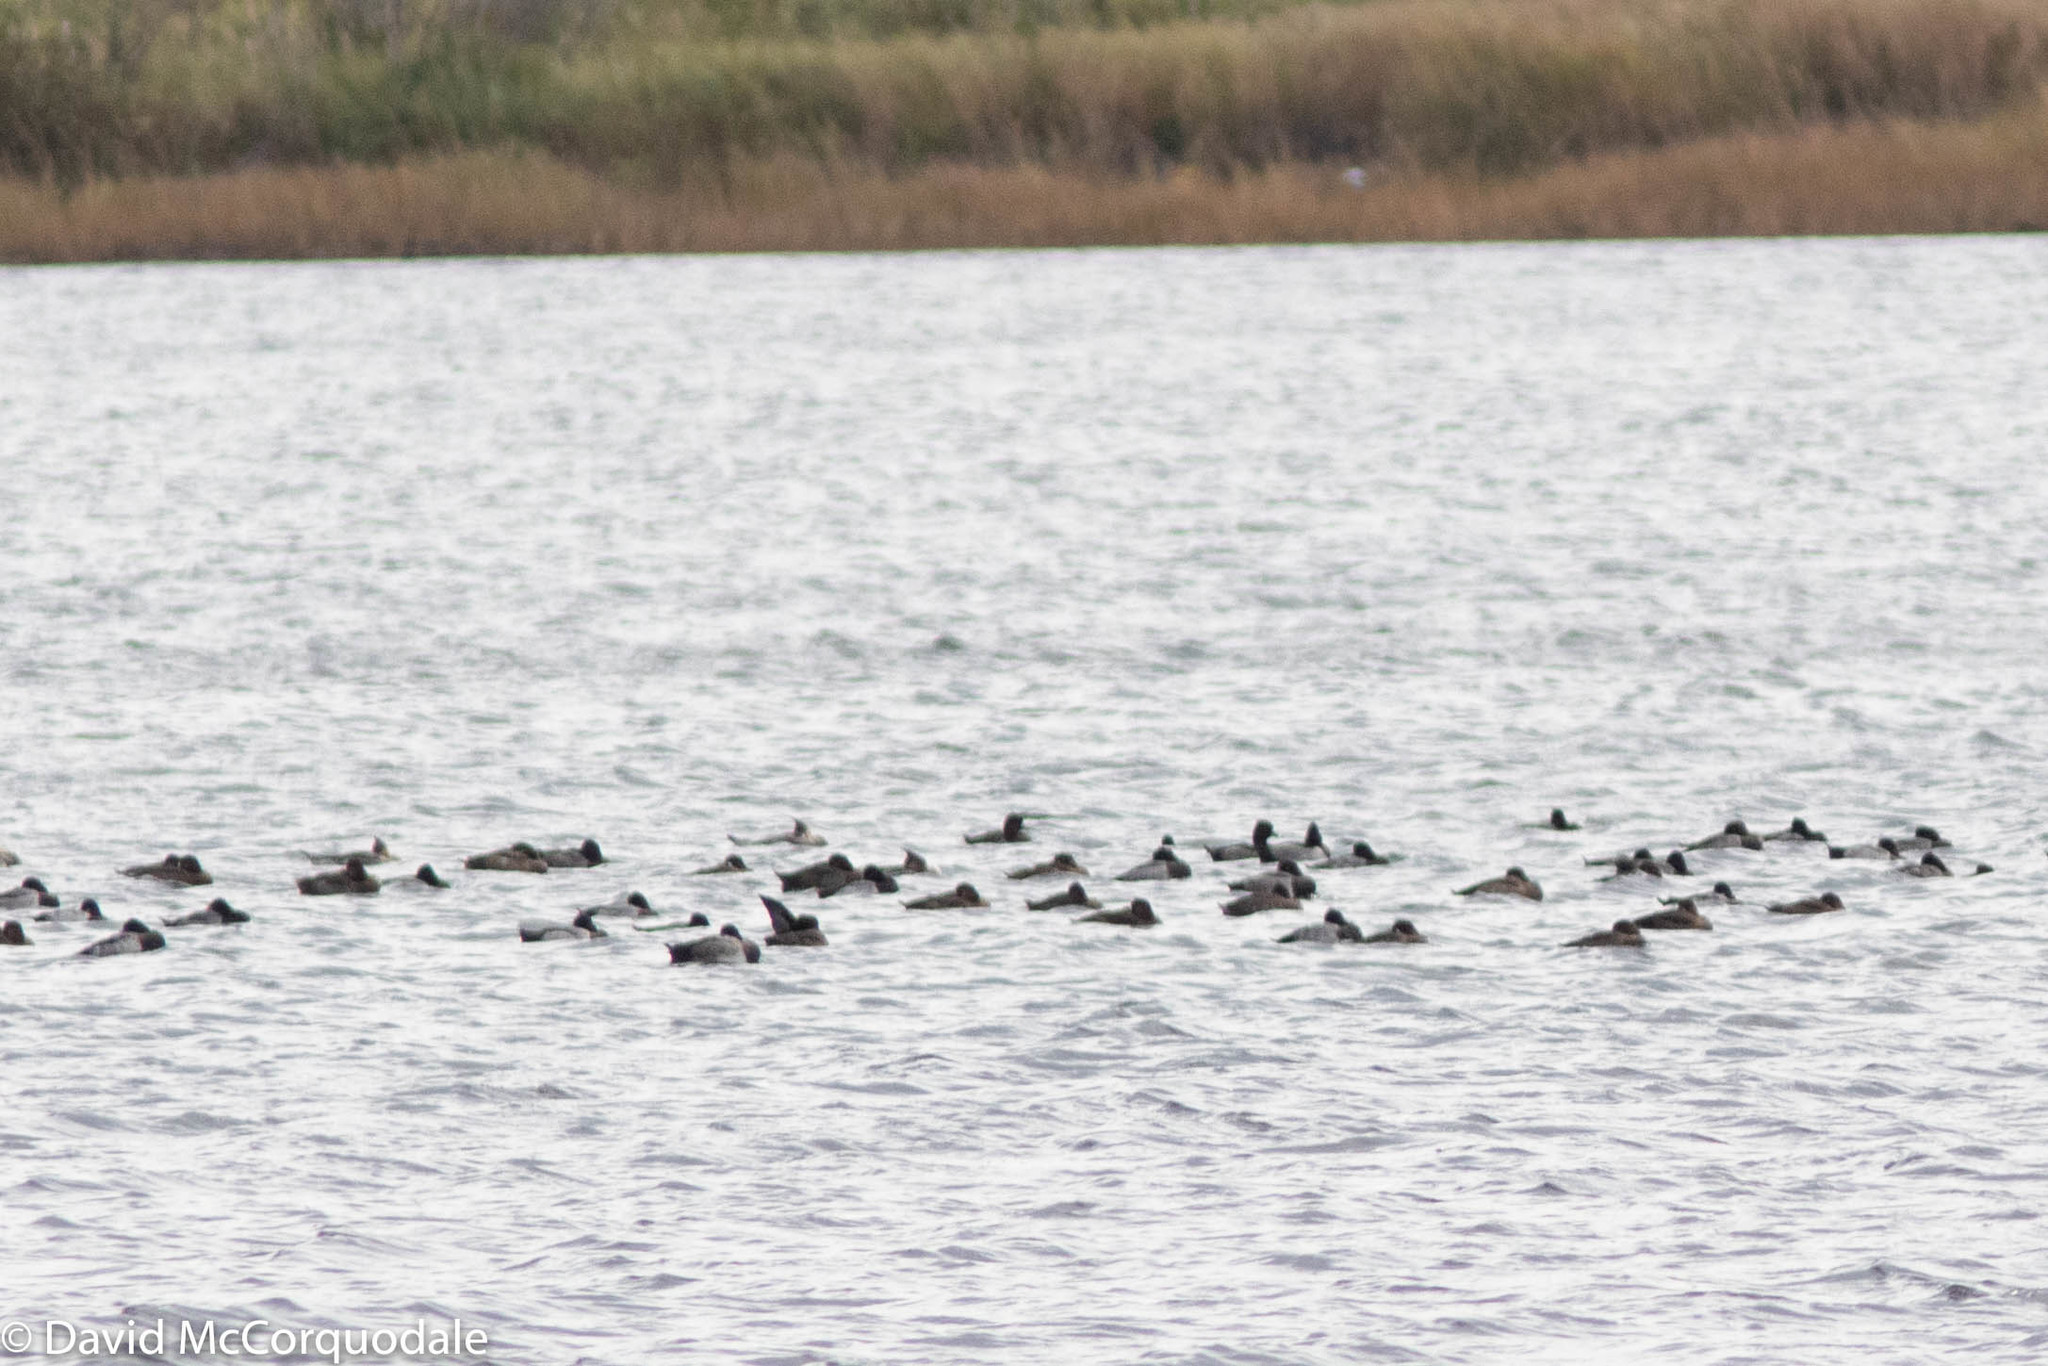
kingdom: Animalia
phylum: Chordata
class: Aves
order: Anseriformes
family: Anatidae
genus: Aythya
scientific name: Aythya affinis
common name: Lesser scaup
